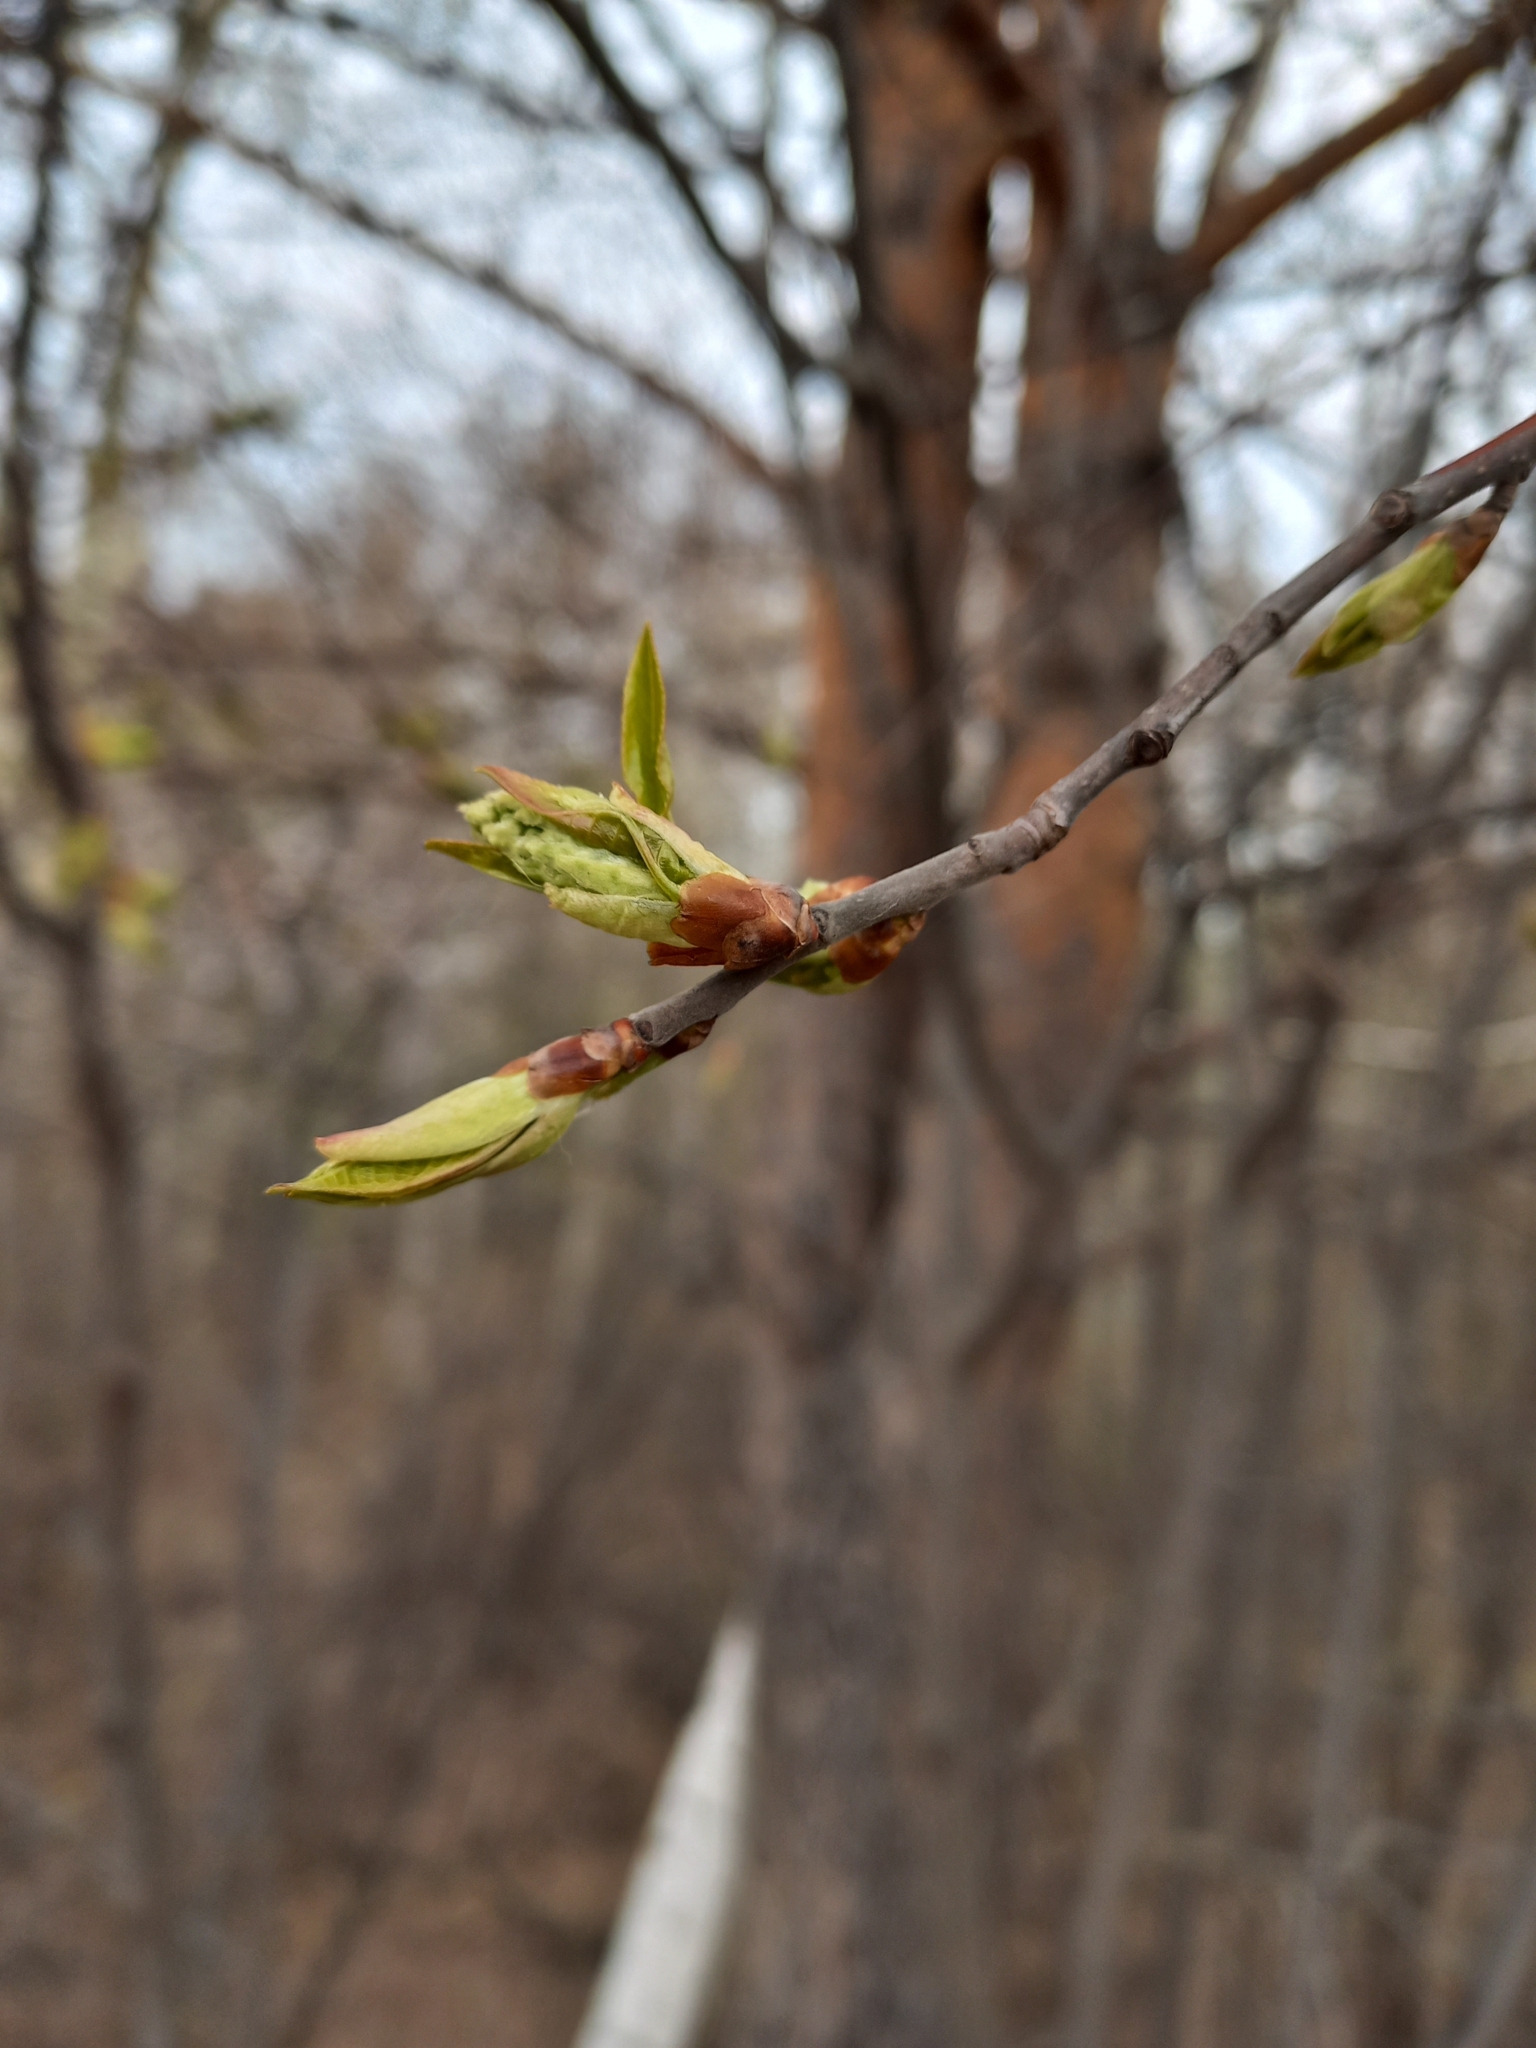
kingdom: Plantae
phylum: Tracheophyta
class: Magnoliopsida
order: Rosales
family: Rosaceae
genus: Prunus
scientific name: Prunus padus
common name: Bird cherry
